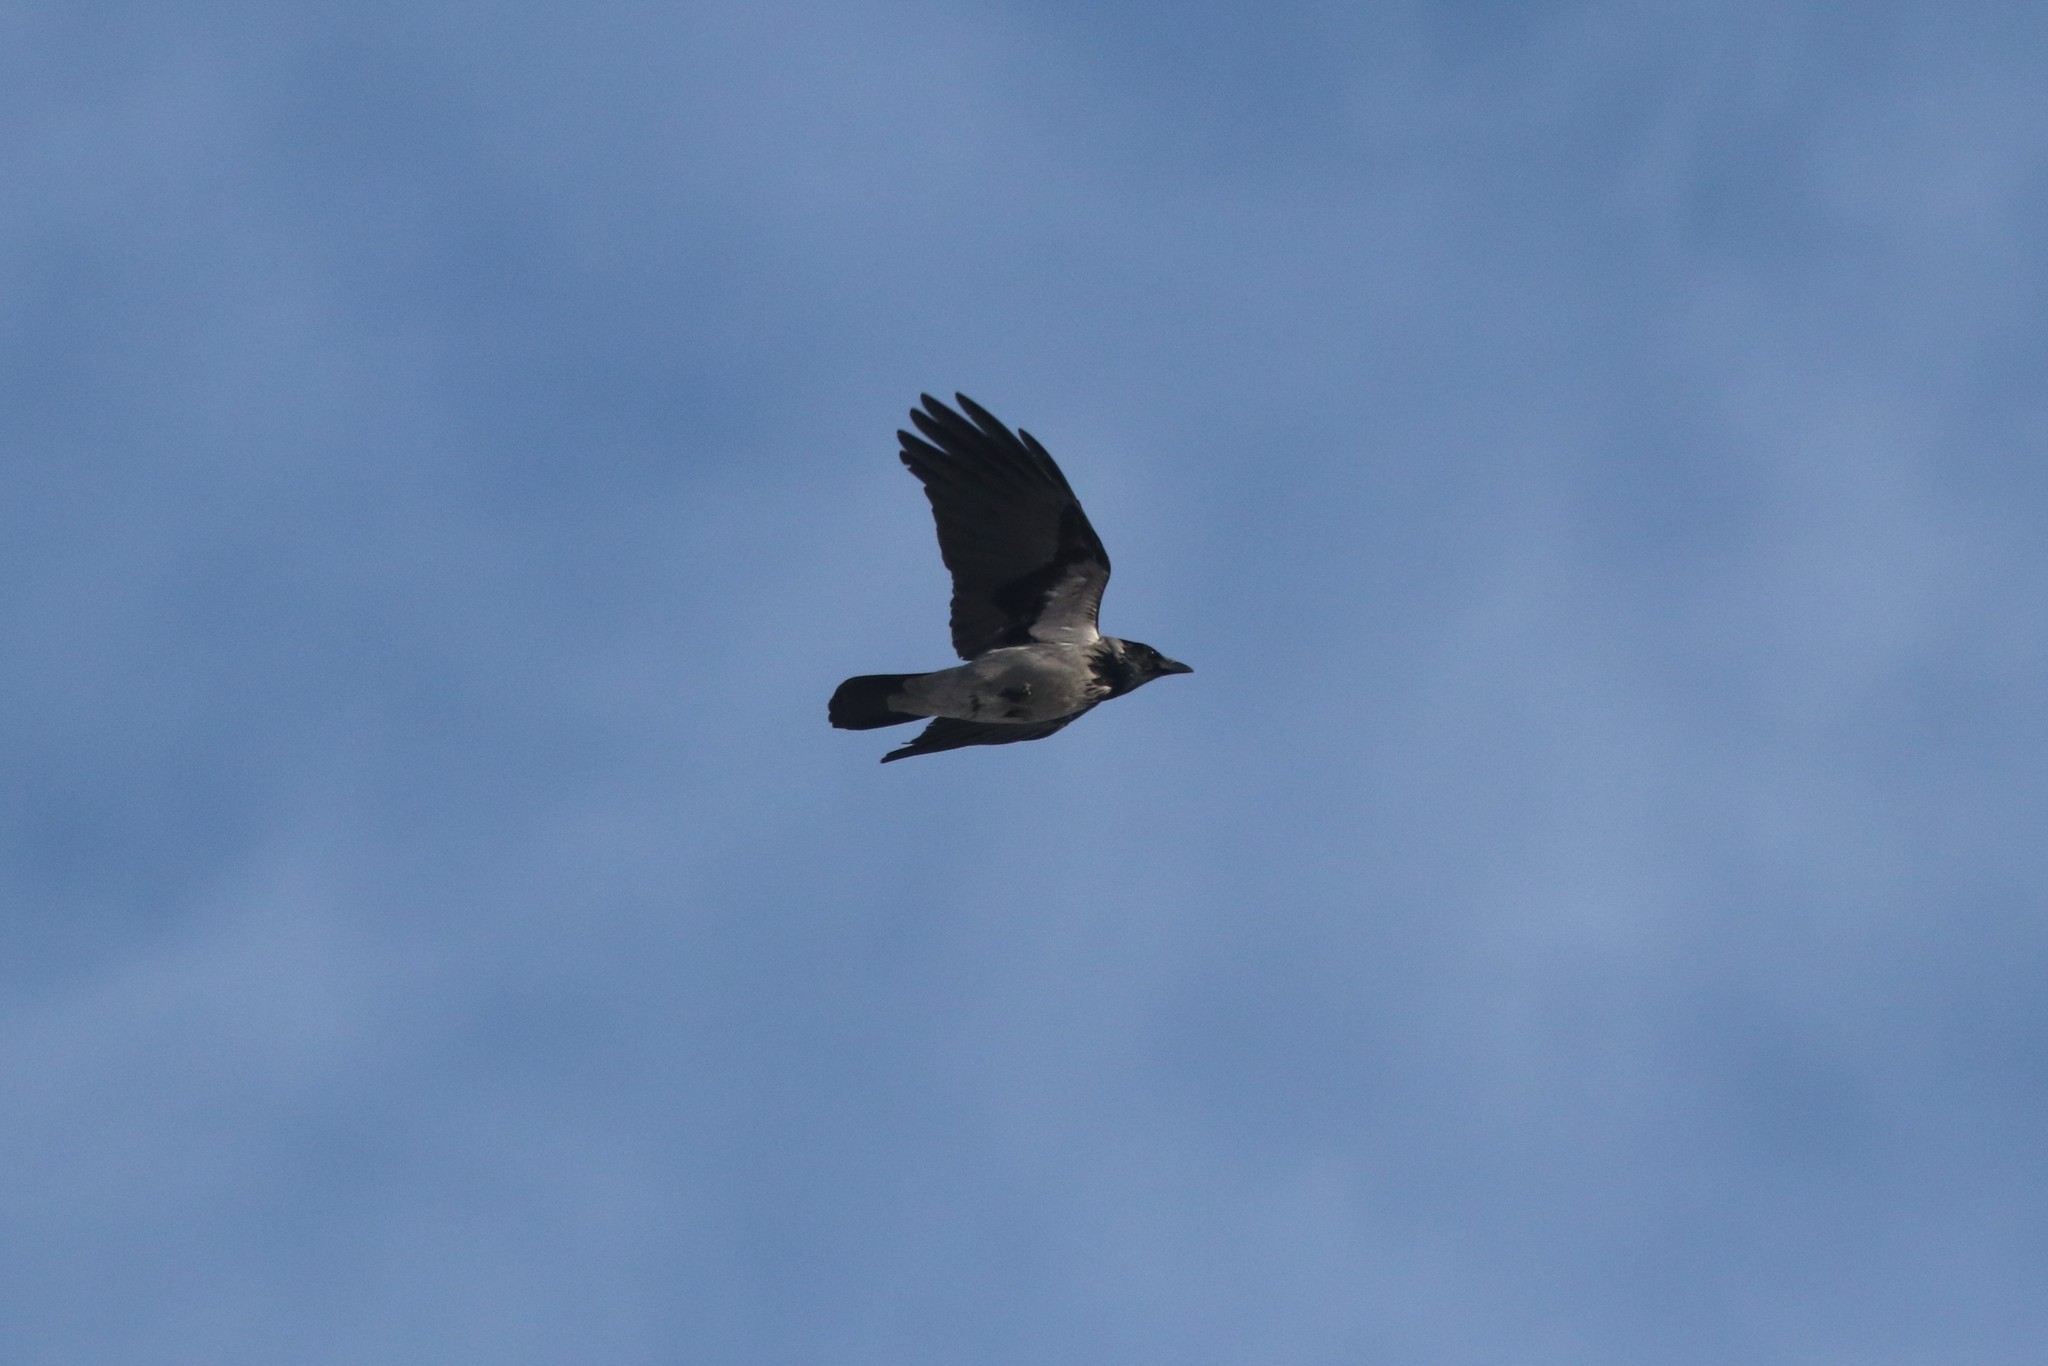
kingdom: Animalia
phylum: Chordata
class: Aves
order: Passeriformes
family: Corvidae
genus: Corvus
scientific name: Corvus cornix
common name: Hooded crow
